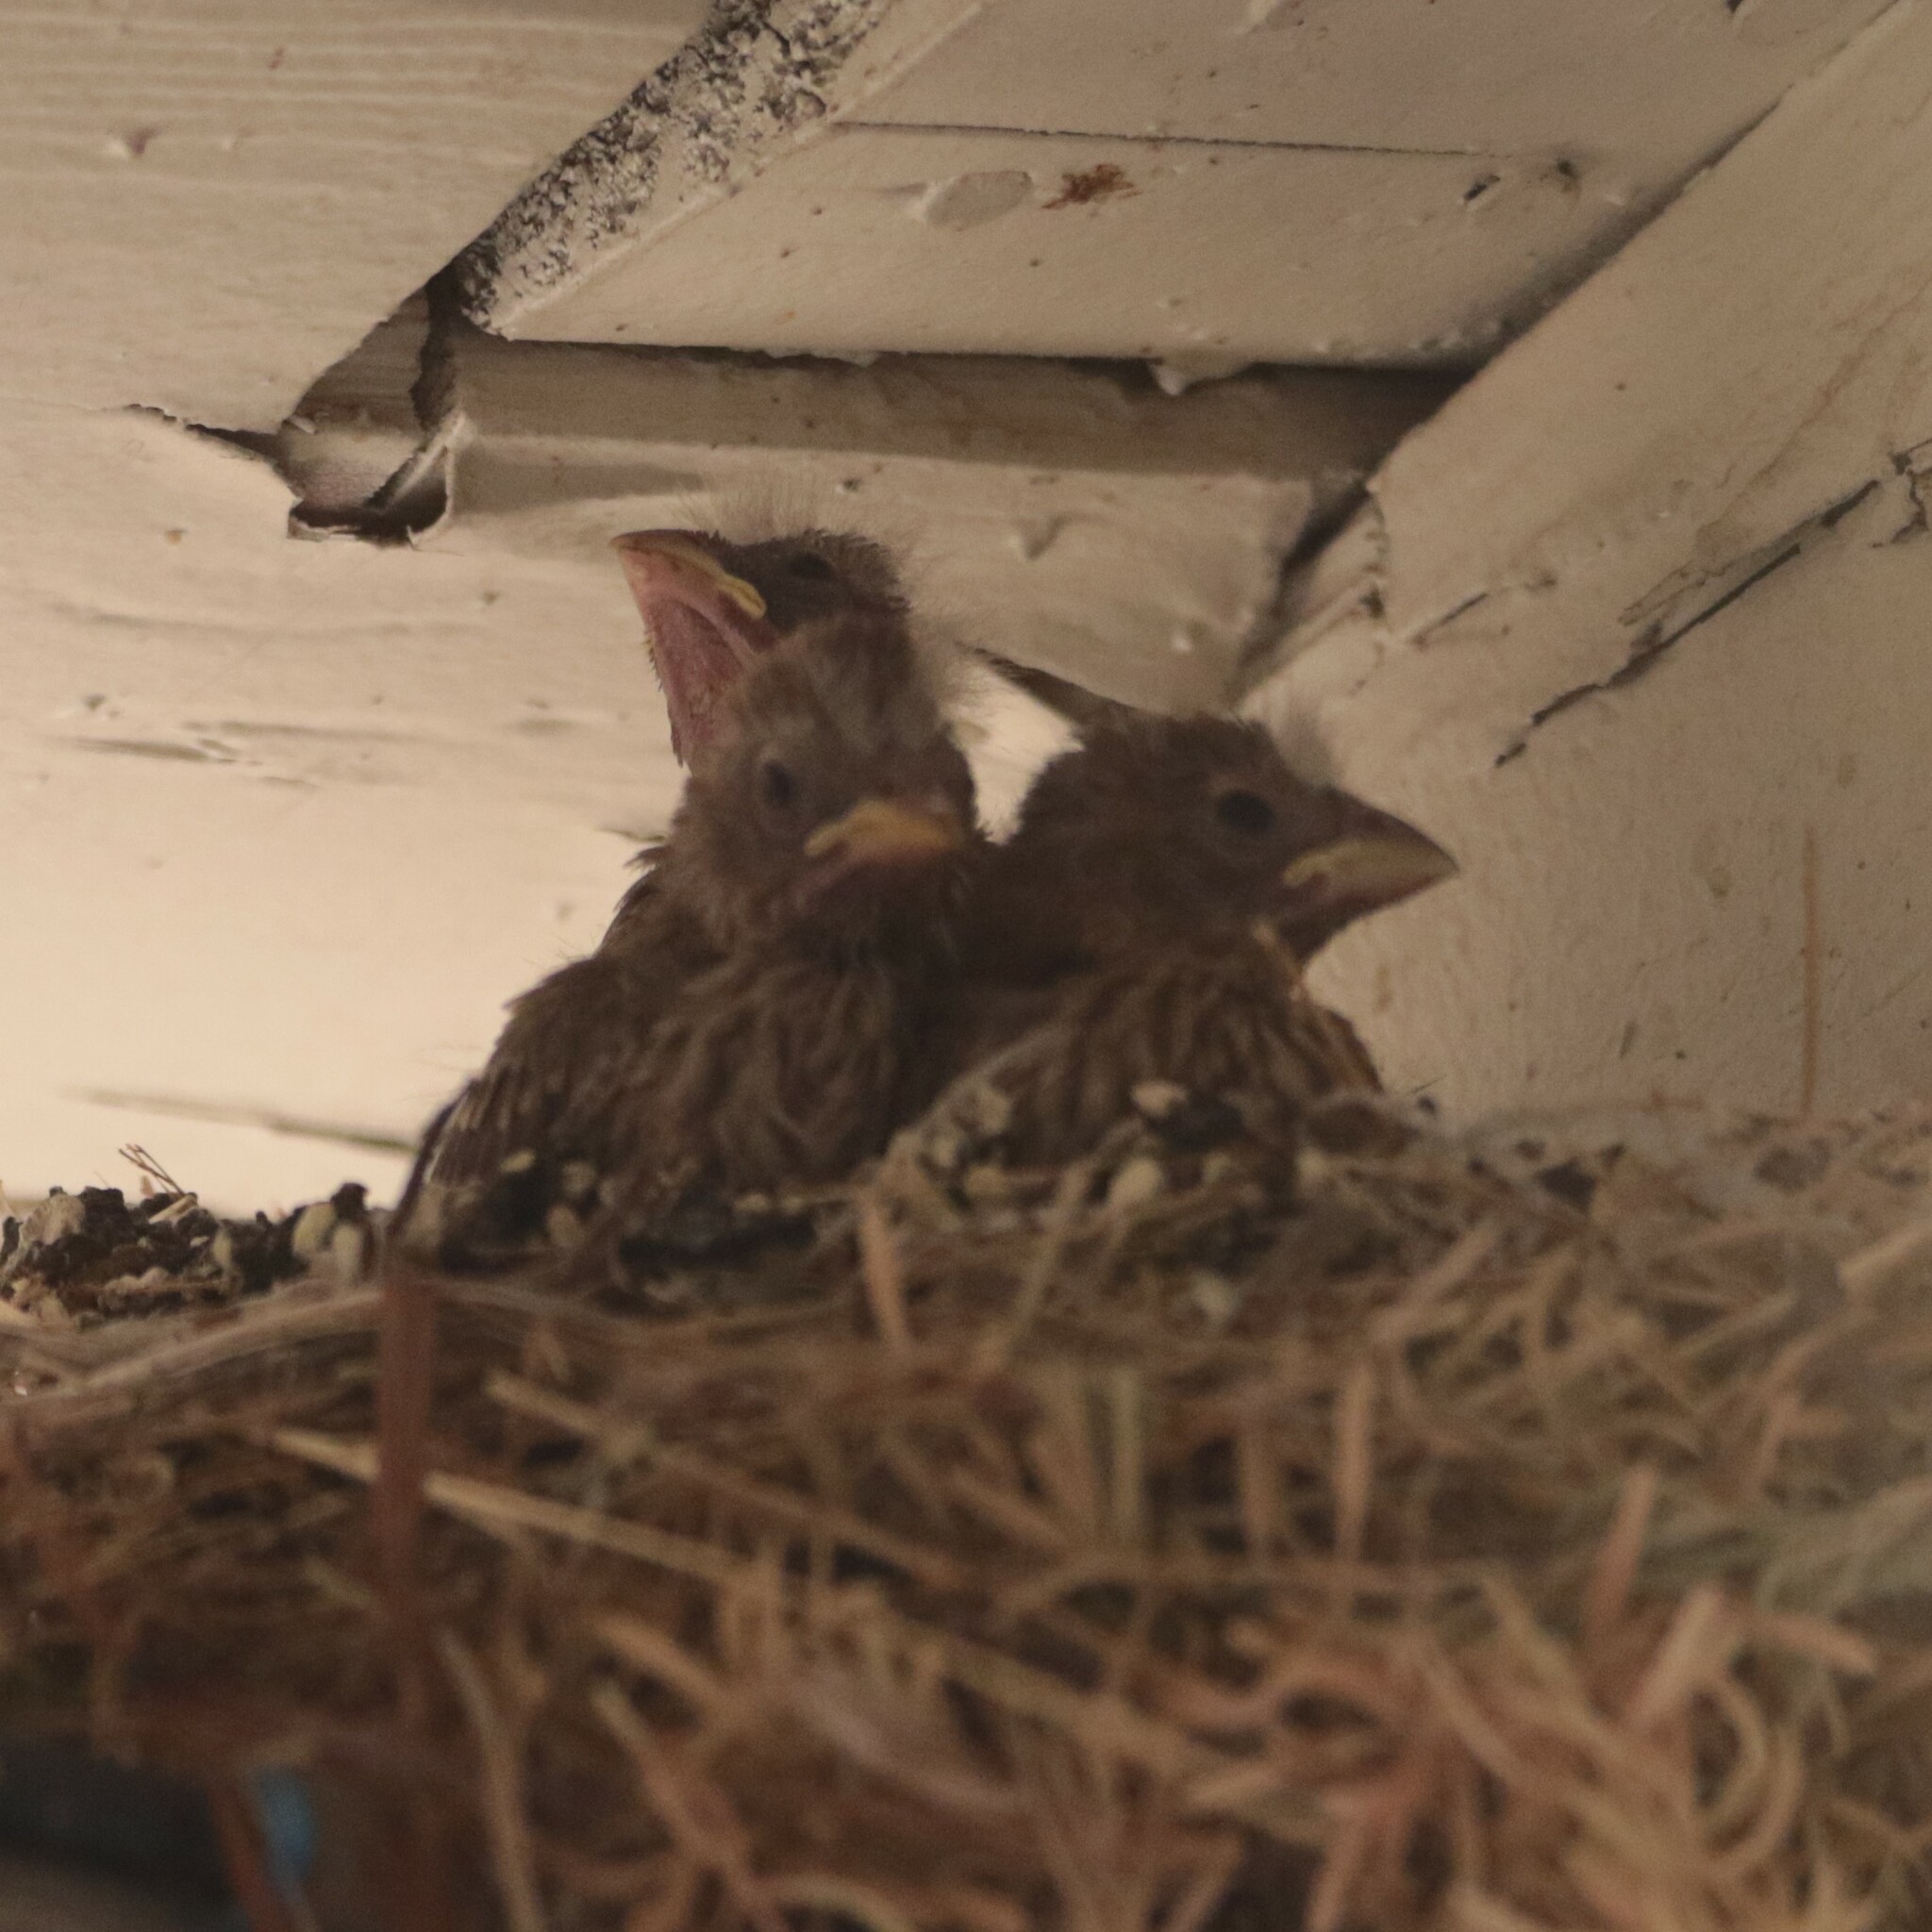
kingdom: Animalia
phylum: Chordata
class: Aves
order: Passeriformes
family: Fringillidae
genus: Haemorhous
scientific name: Haemorhous mexicanus
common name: House finch
